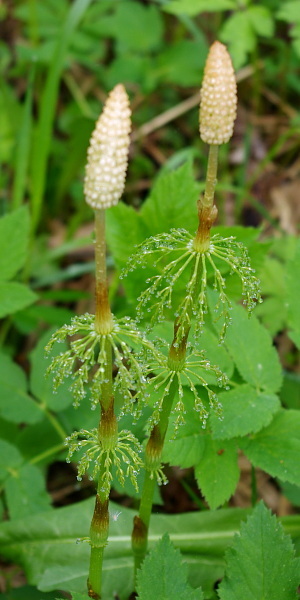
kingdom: Plantae
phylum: Tracheophyta
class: Polypodiopsida
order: Equisetales
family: Equisetaceae
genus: Equisetum
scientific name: Equisetum sylvaticum
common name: Wood horsetail
